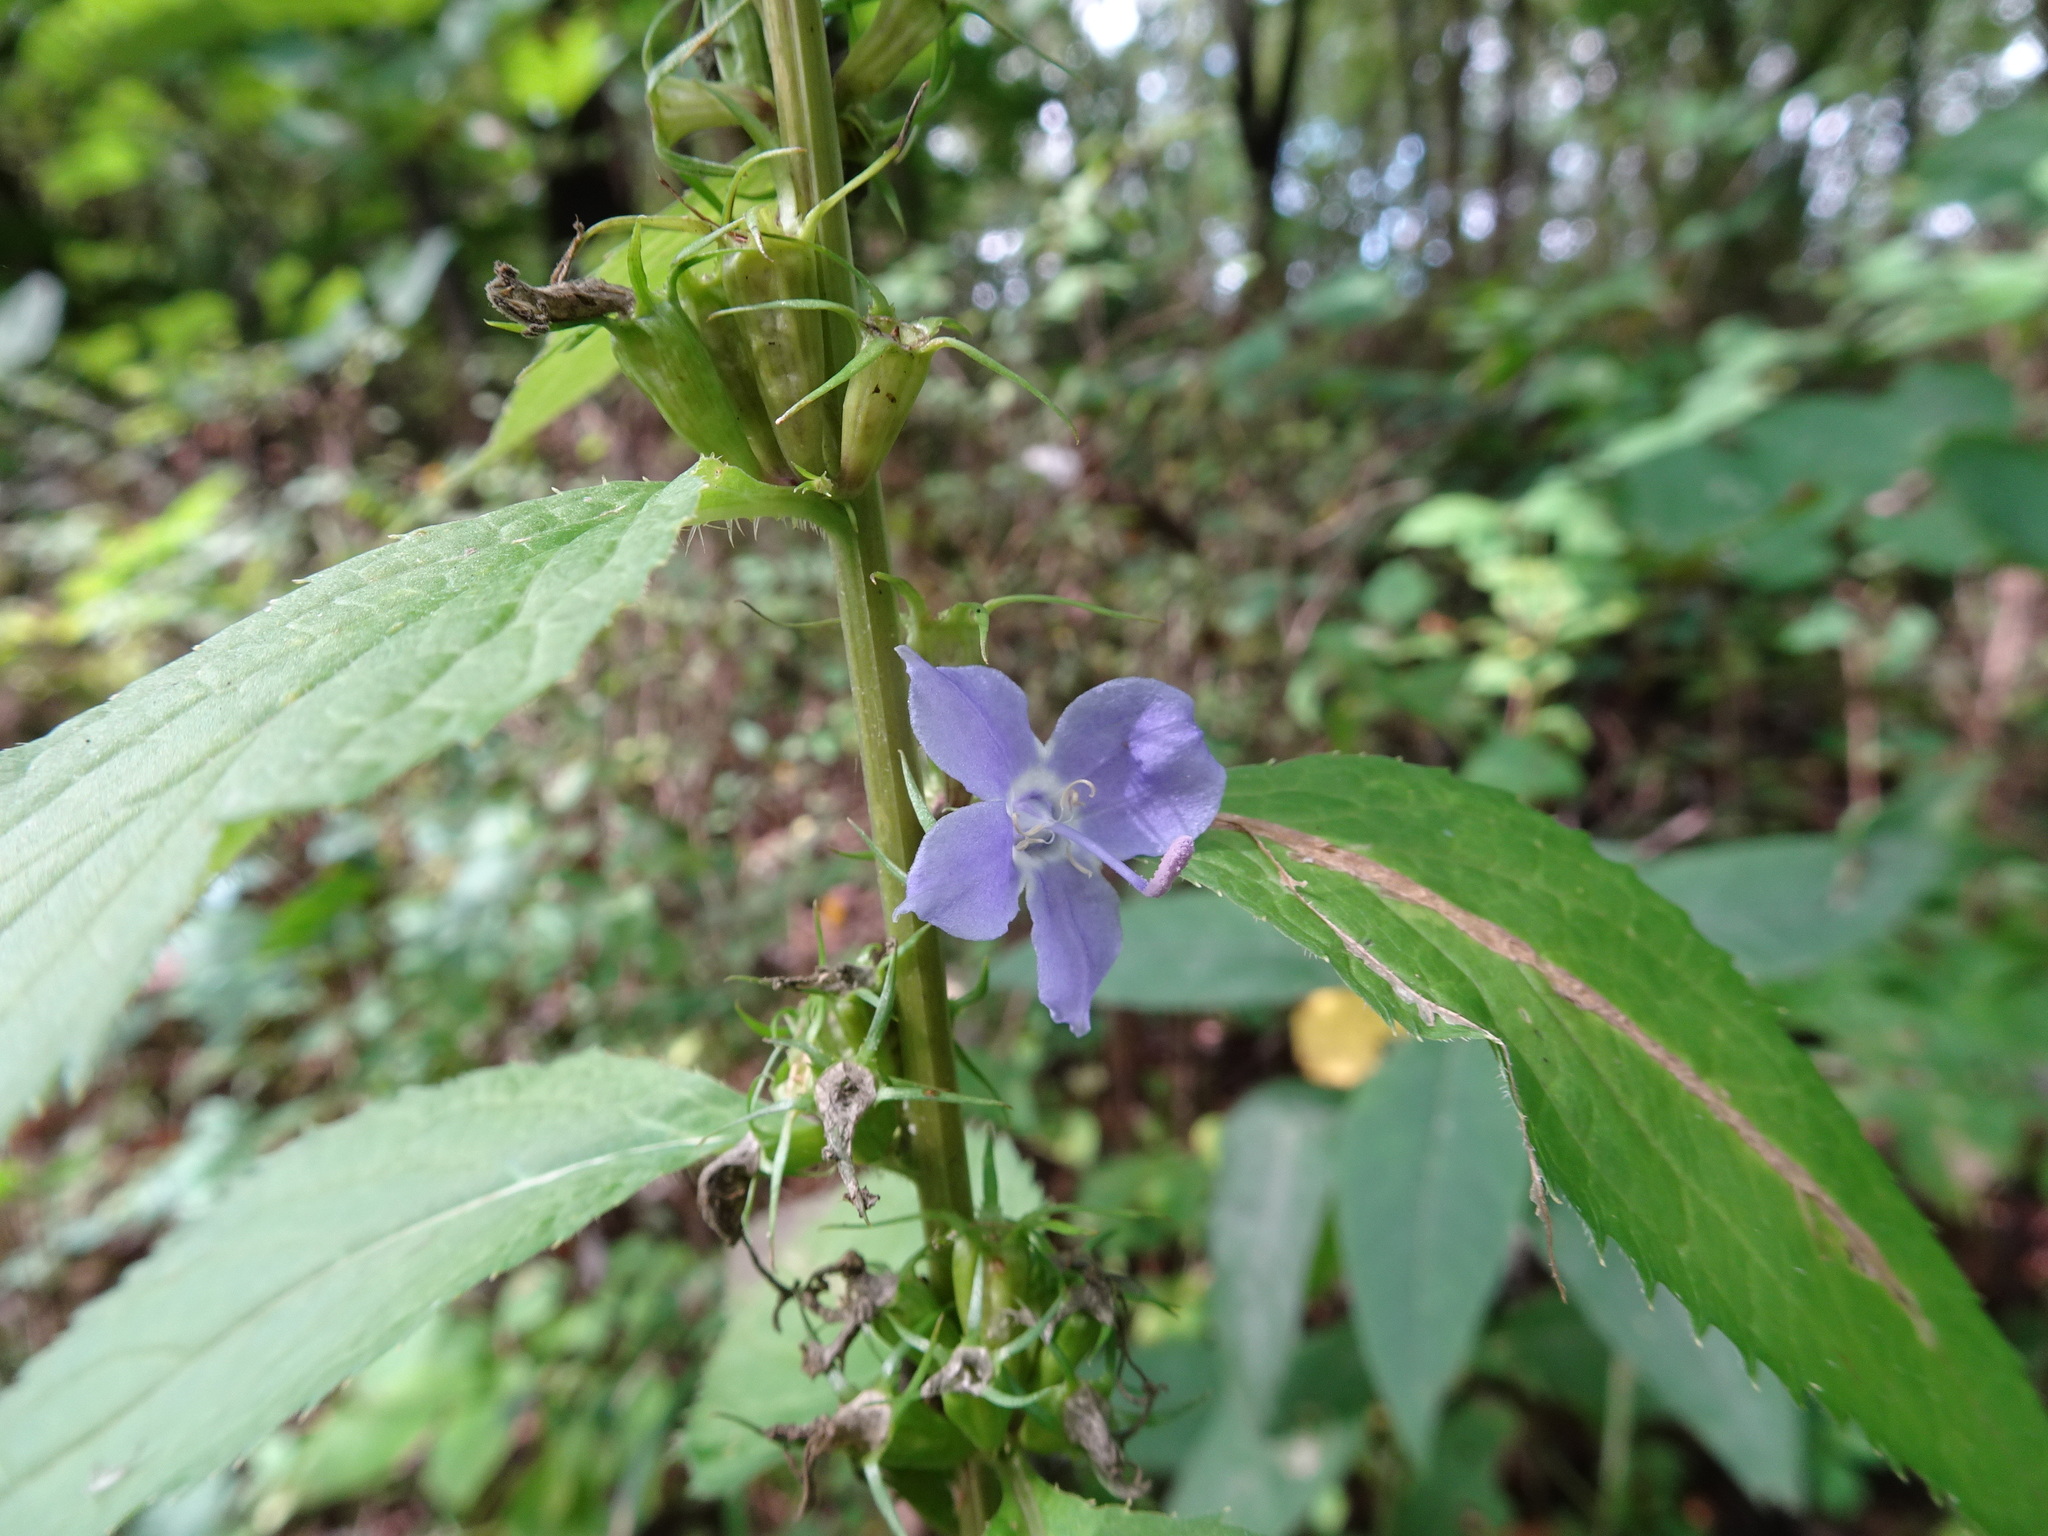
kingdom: Plantae
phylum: Tracheophyta
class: Magnoliopsida
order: Asterales
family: Campanulaceae
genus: Campanulastrum
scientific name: Campanulastrum americanum
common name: American bellflower
